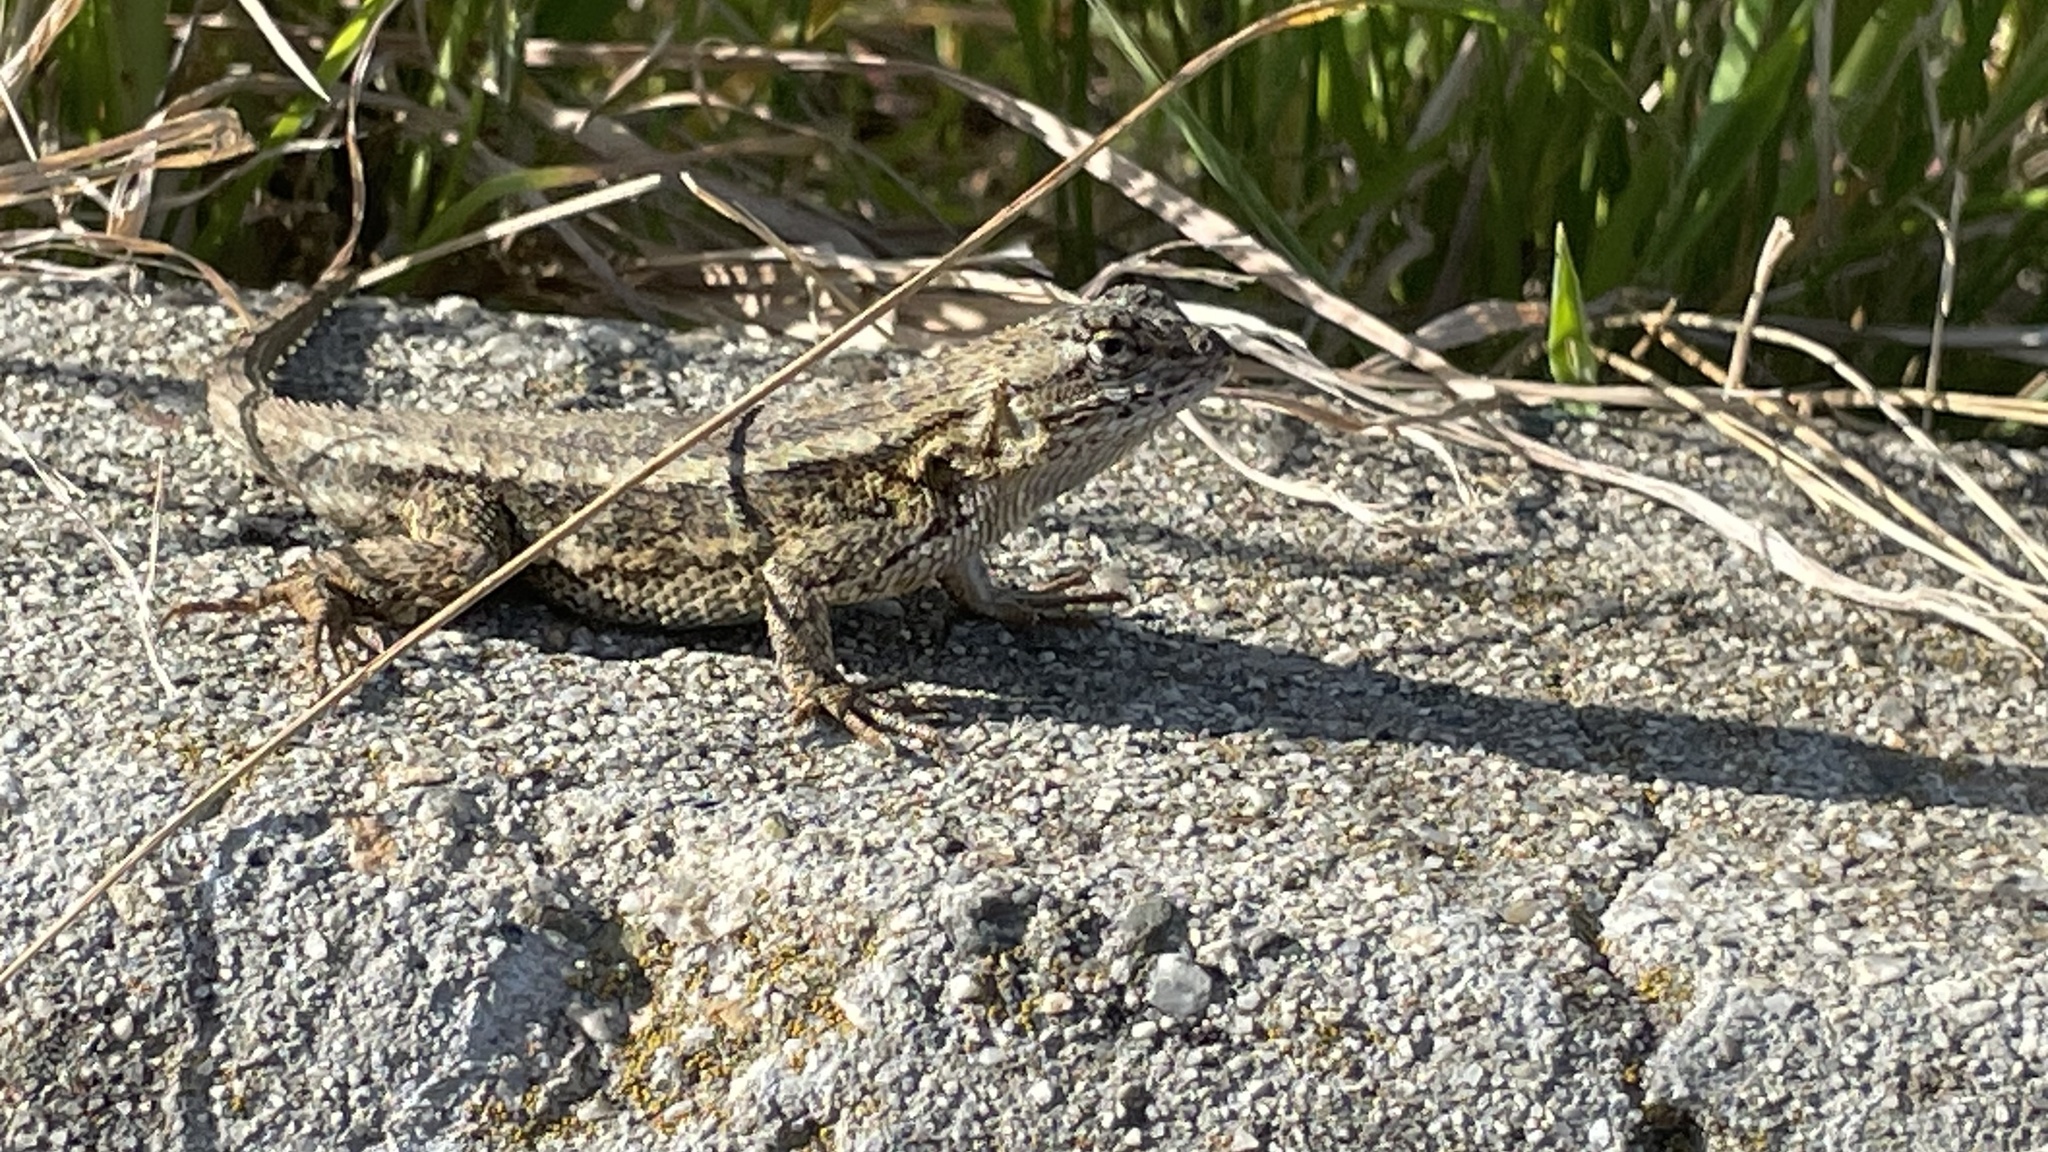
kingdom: Animalia
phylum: Chordata
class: Squamata
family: Phrynosomatidae
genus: Sceloporus
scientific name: Sceloporus occidentalis
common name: Western fence lizard
